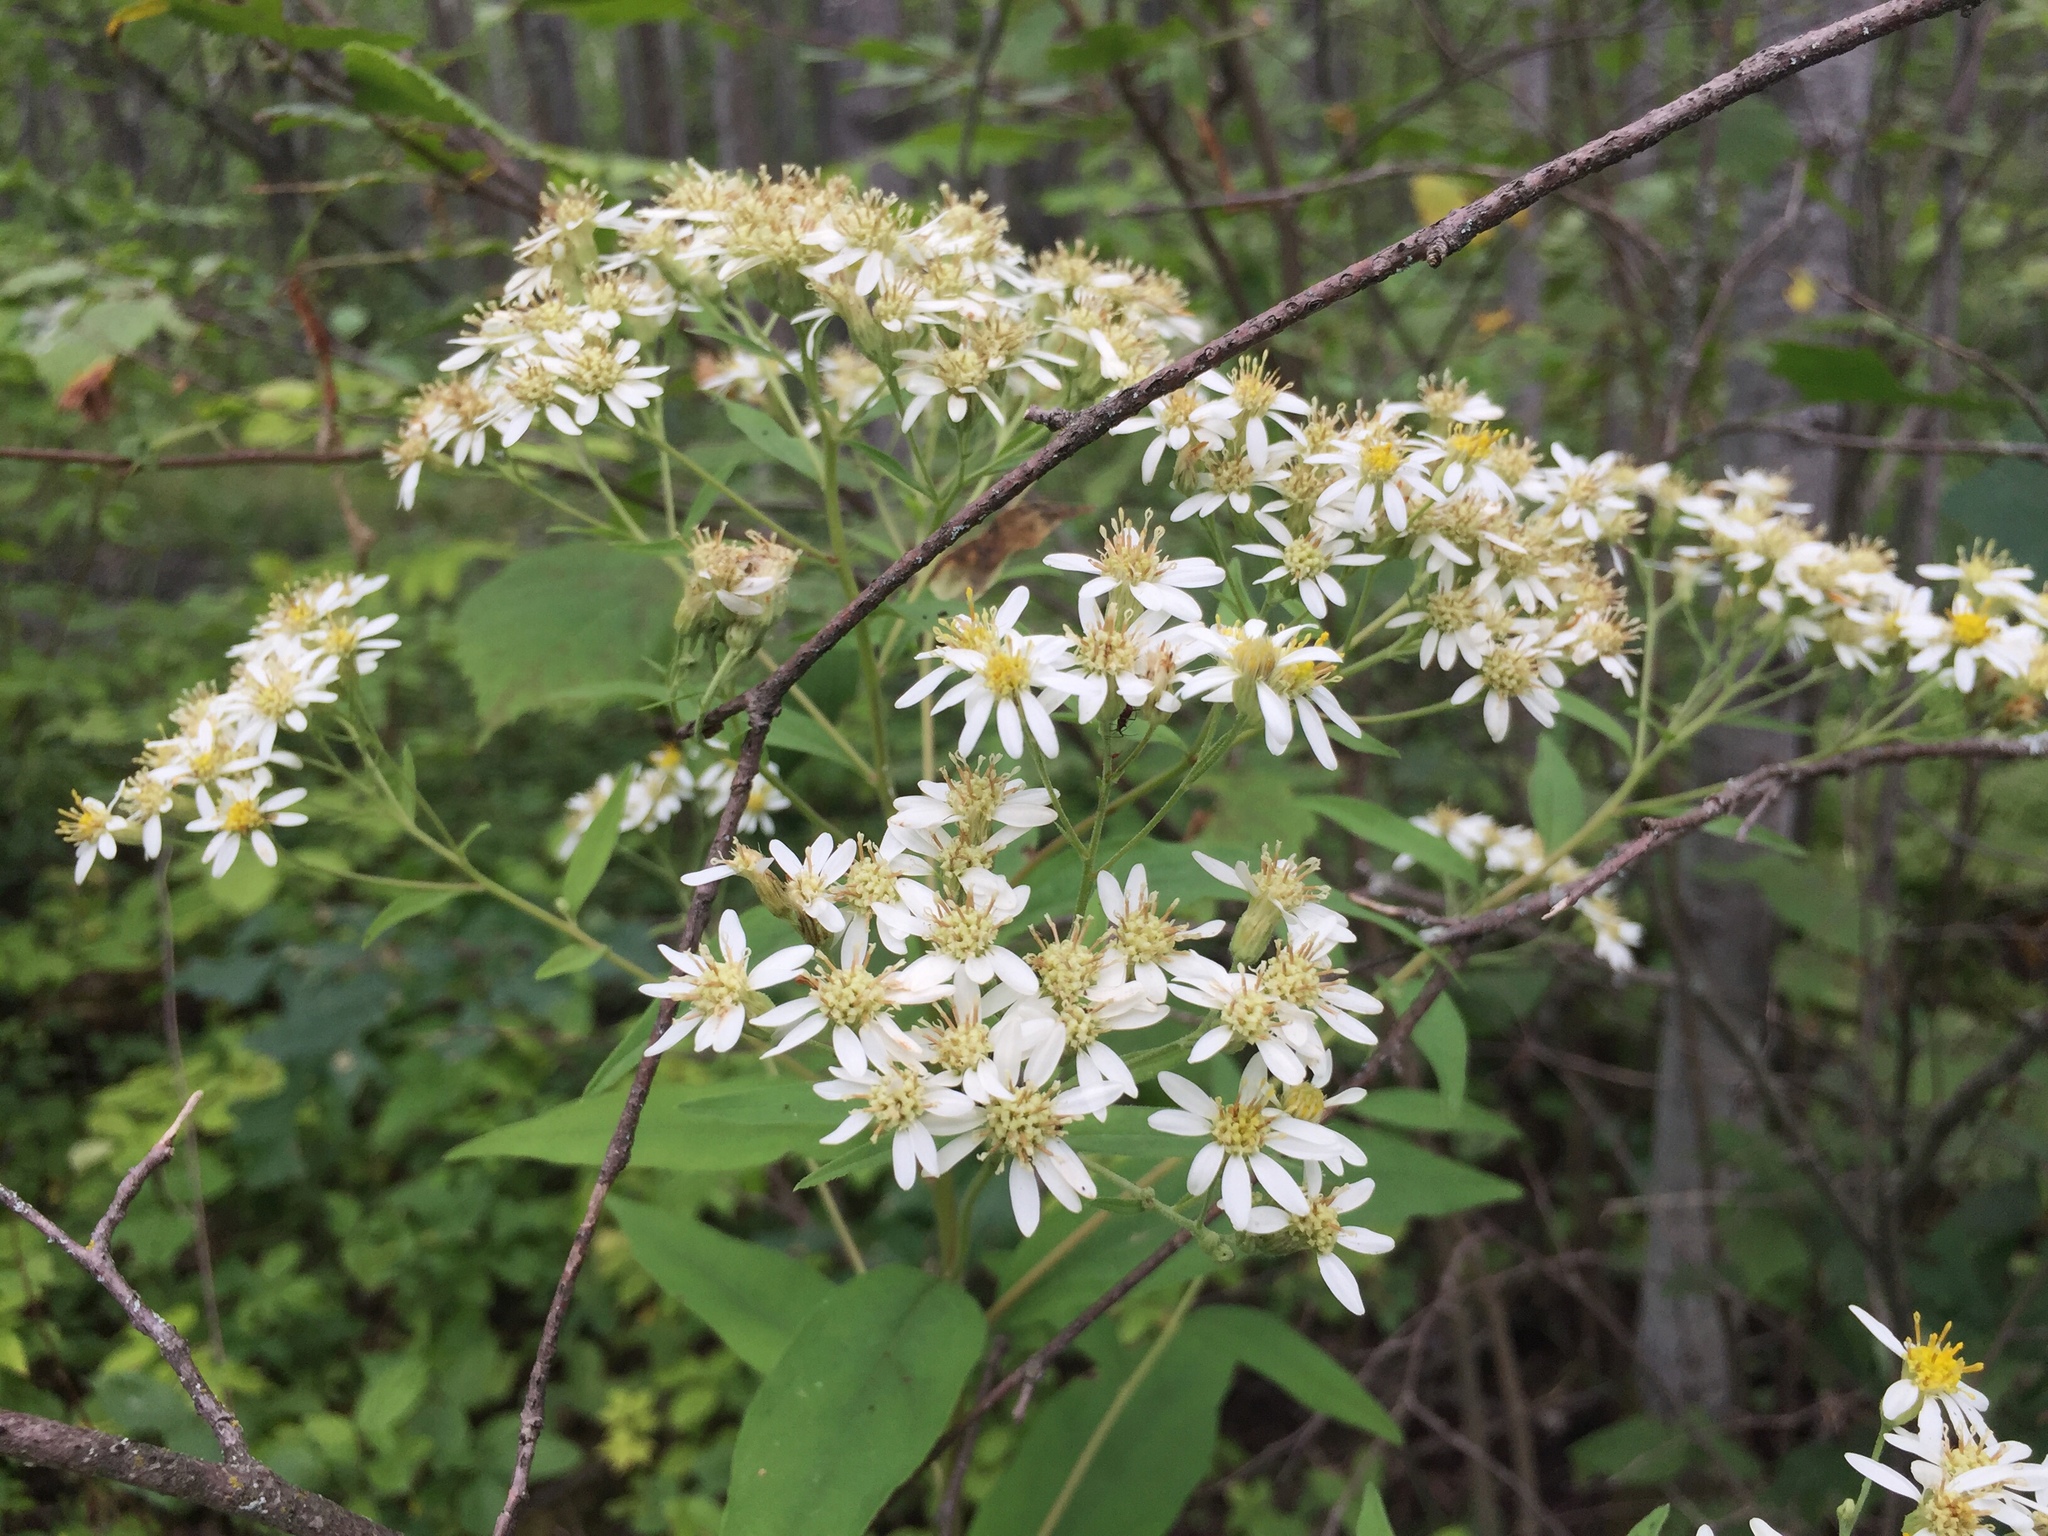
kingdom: Plantae
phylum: Tracheophyta
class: Magnoliopsida
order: Asterales
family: Asteraceae
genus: Doellingeria
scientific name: Doellingeria umbellata
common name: Flat-top white aster
